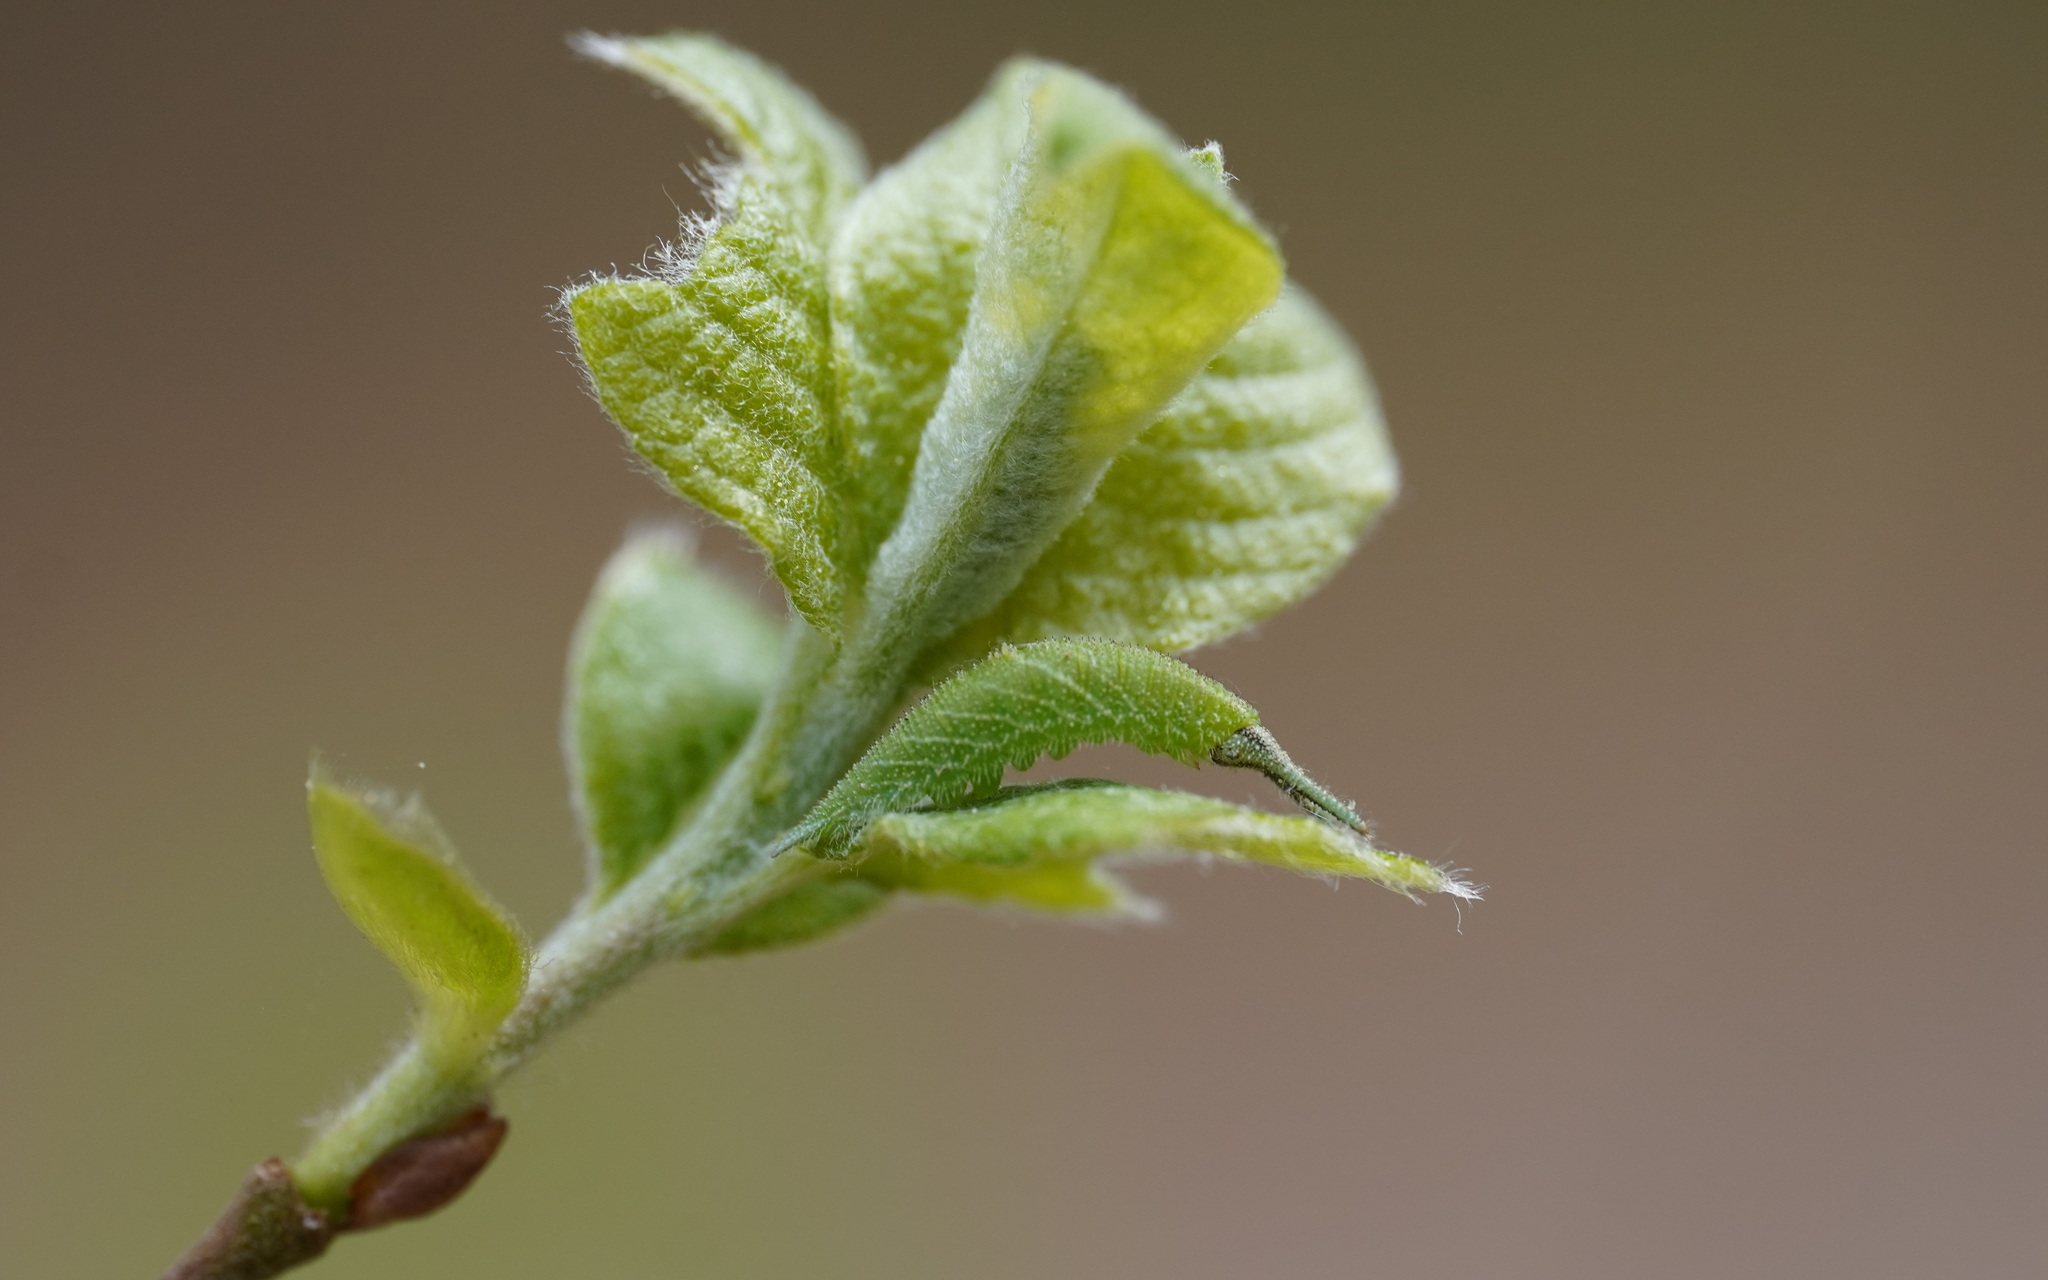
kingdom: Animalia
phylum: Arthropoda
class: Insecta
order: Lepidoptera
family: Nymphalidae
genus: Apatura
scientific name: Apatura iris
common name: Purple emperor
